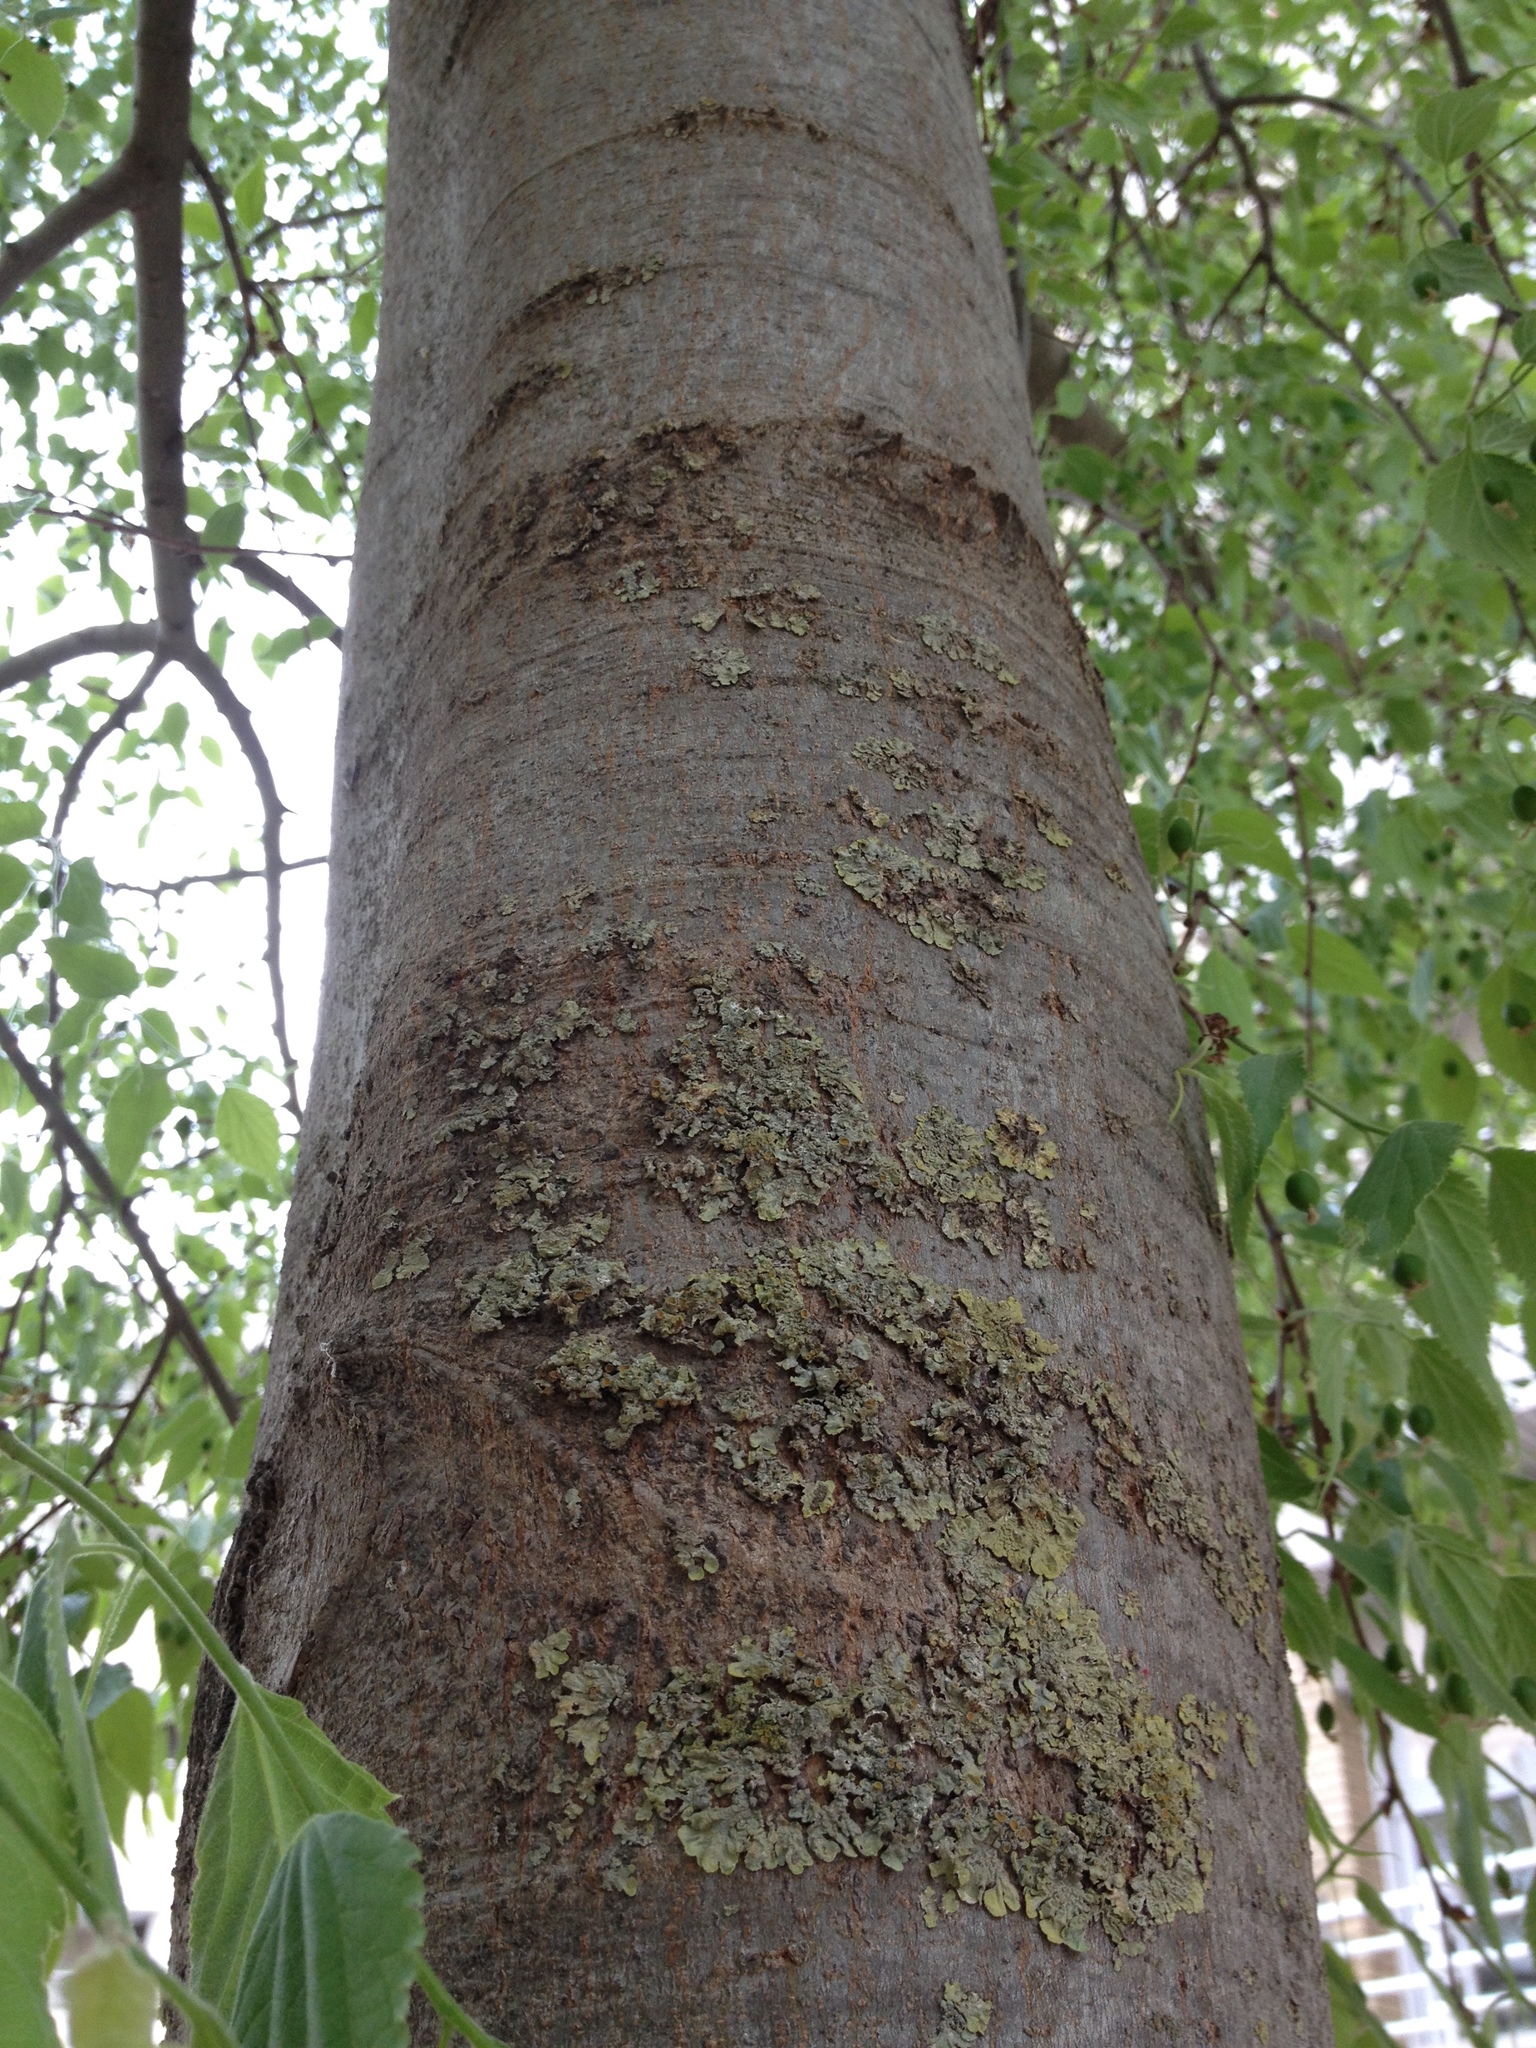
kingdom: Fungi
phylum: Ascomycota
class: Lecanoromycetes
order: Teloschistales
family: Teloschistaceae
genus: Xanthoria
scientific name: Xanthoria parietina
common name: Common orange lichen
